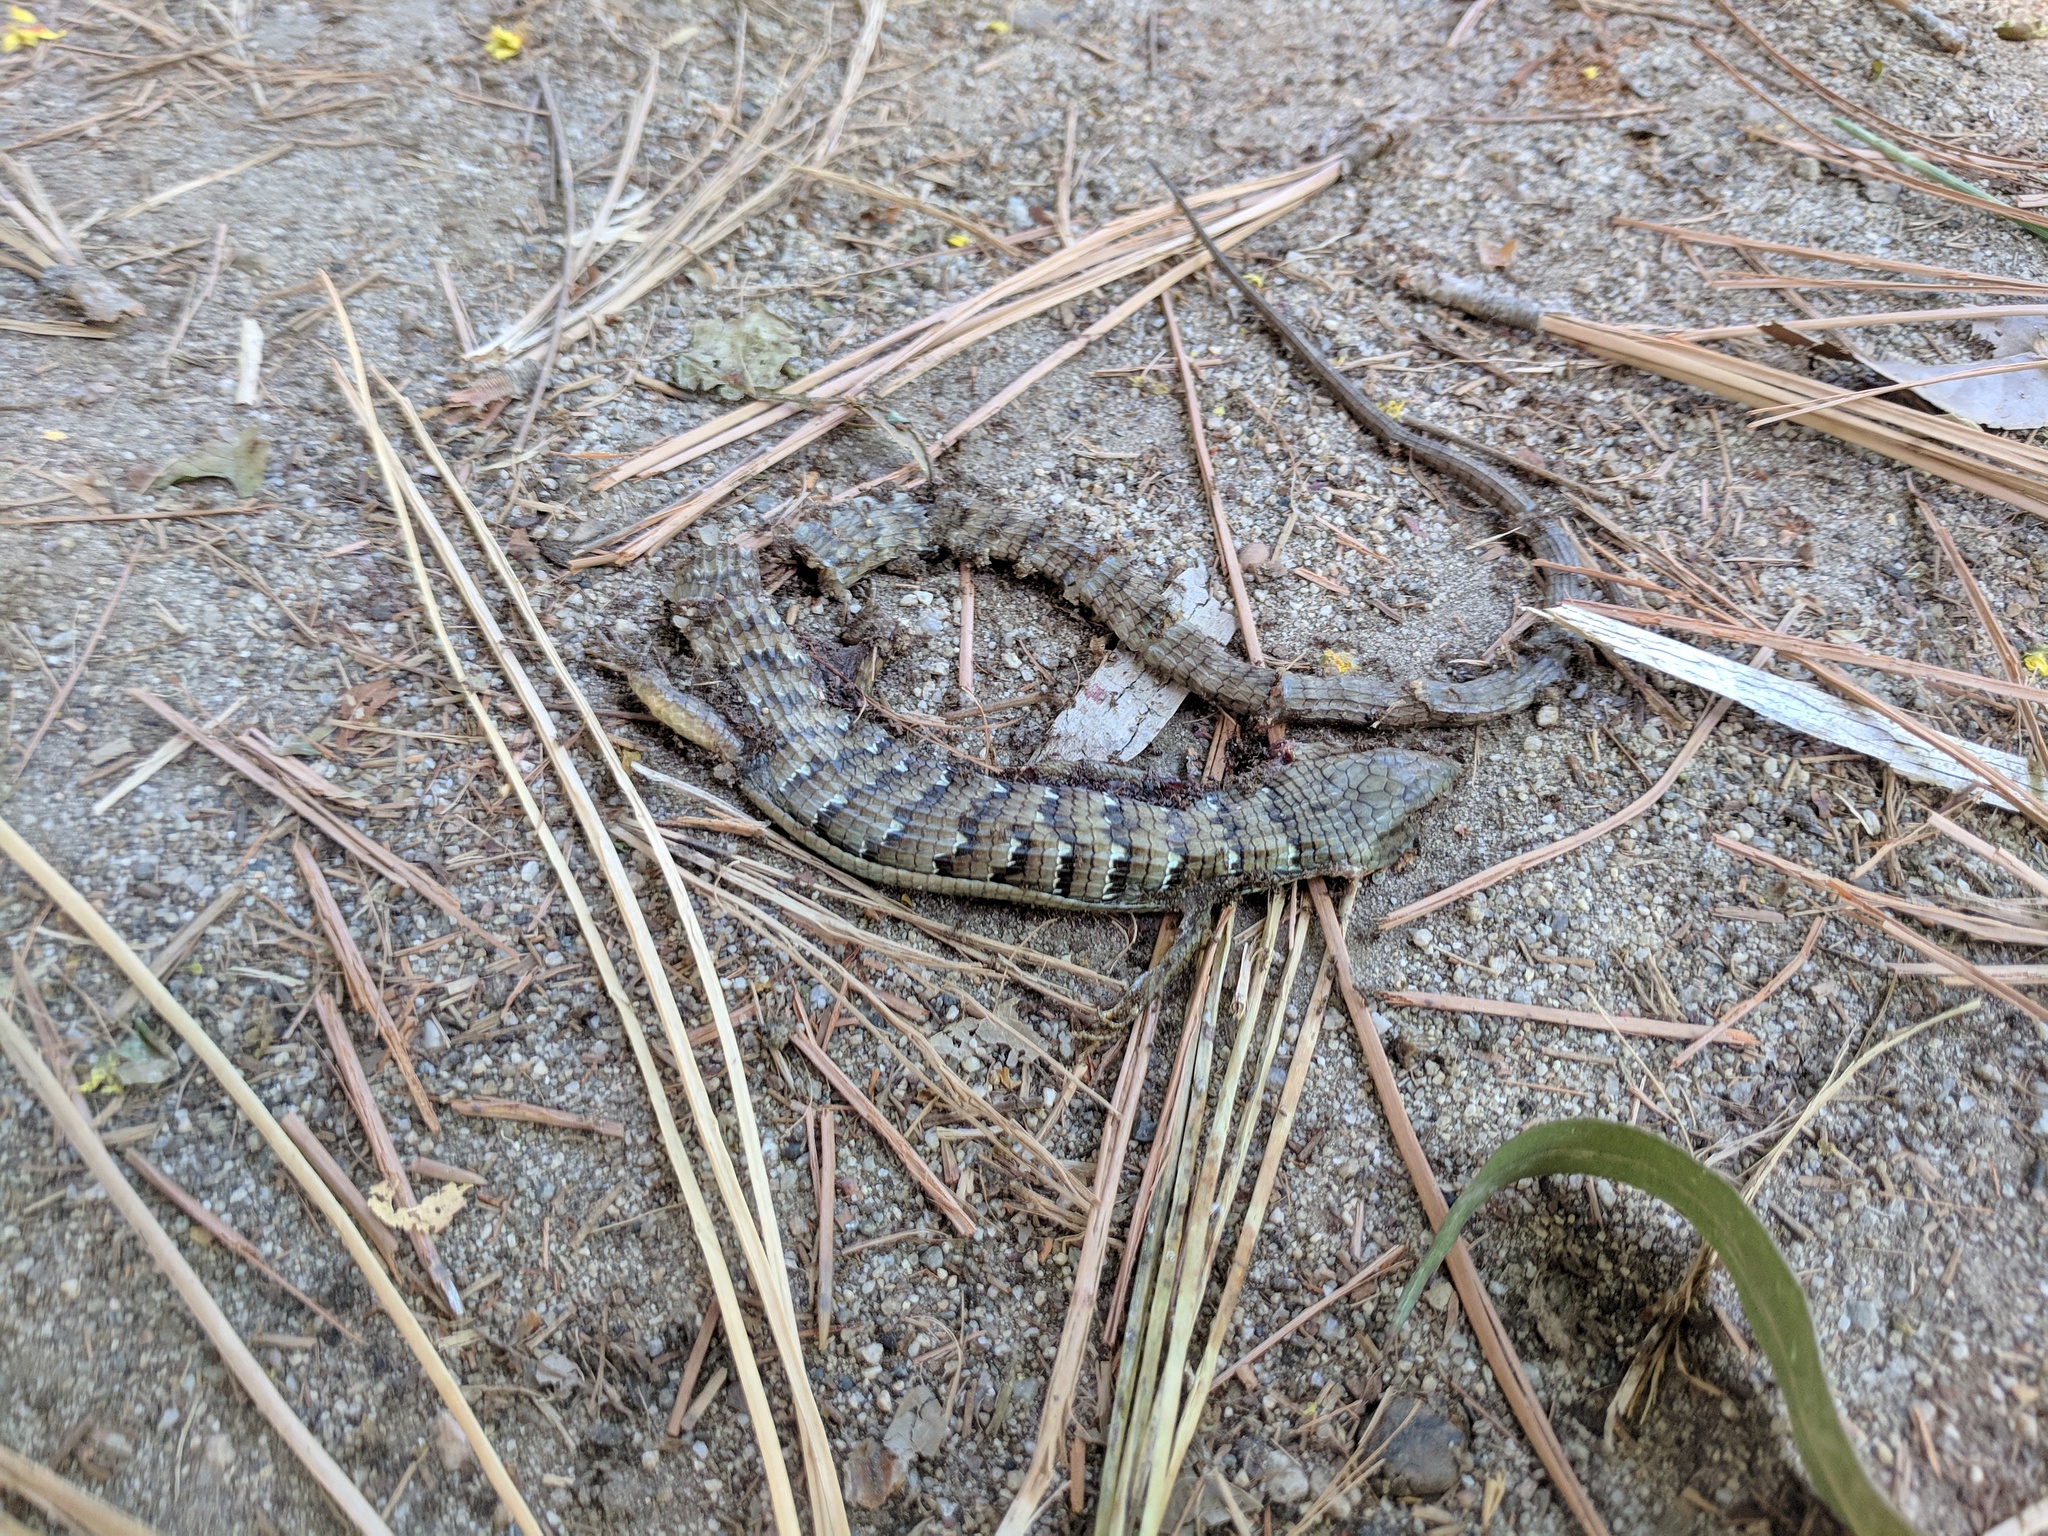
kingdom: Animalia
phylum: Chordata
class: Squamata
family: Anguidae
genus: Elgaria
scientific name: Elgaria multicarinata
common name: Southern alligator lizard
